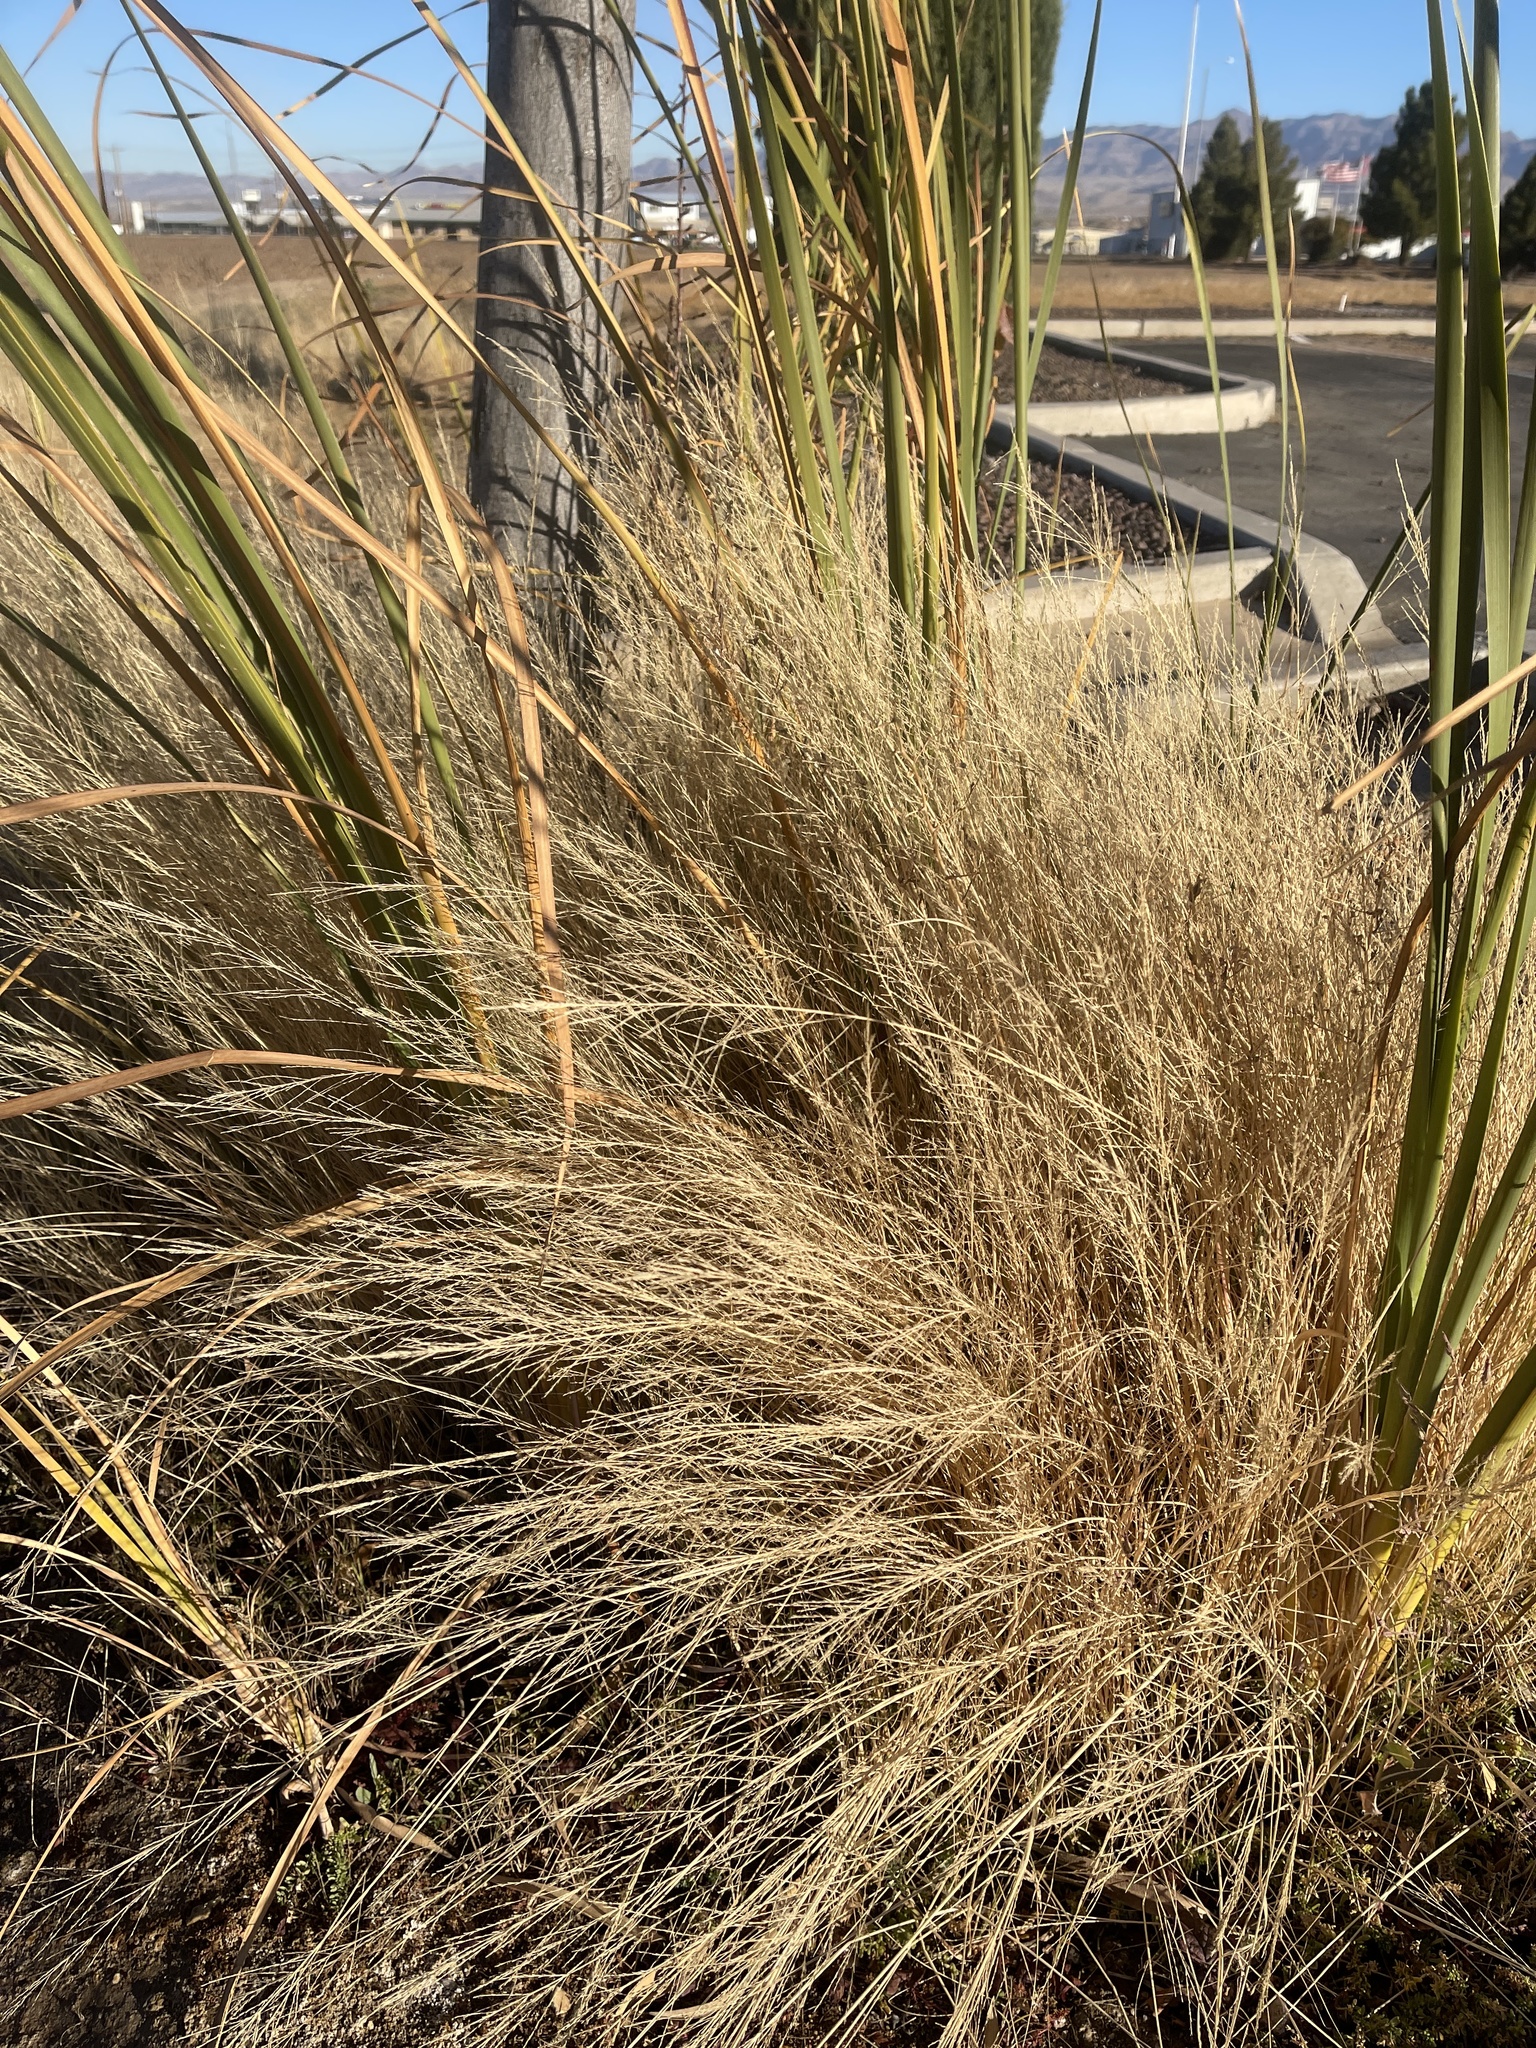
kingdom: Plantae
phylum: Tracheophyta
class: Liliopsida
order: Poales
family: Poaceae
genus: Eragrostis
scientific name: Eragrostis lehmanniana
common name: Lehmann lovegrass
